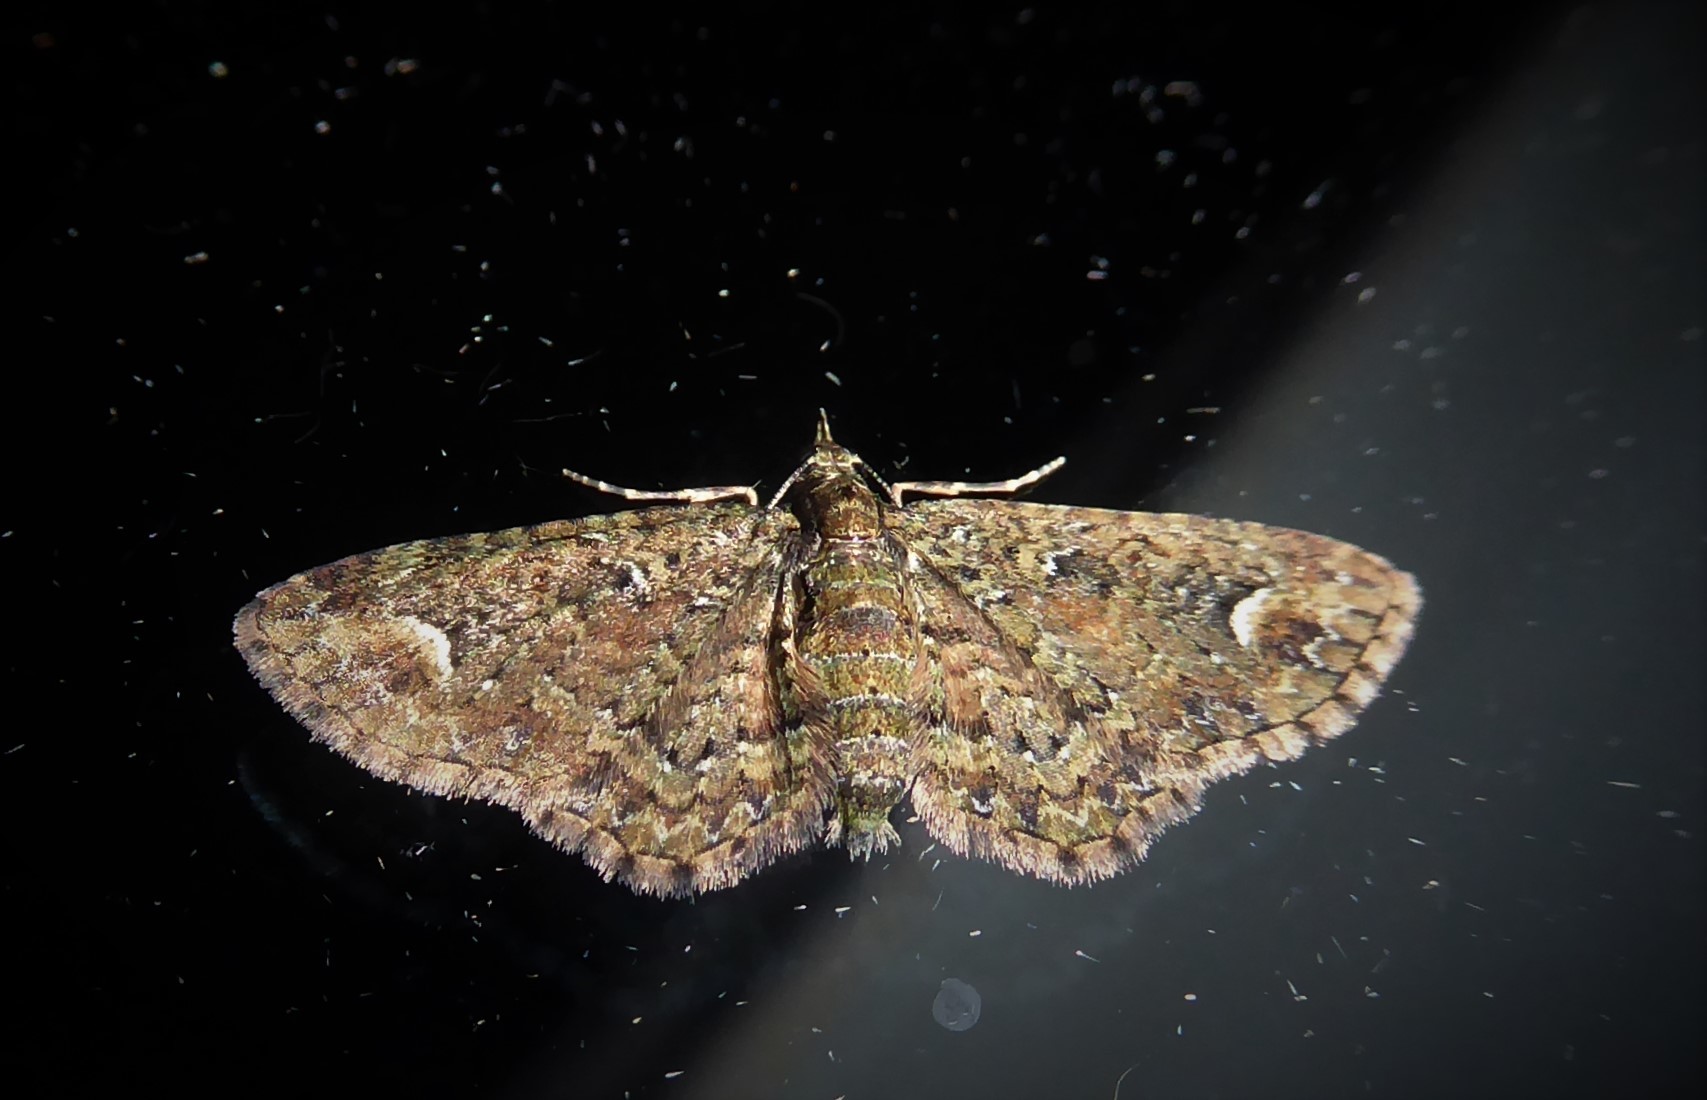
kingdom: Animalia
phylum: Arthropoda
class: Insecta
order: Lepidoptera
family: Geometridae
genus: Pasiphilodes
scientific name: Pasiphilodes testulata
